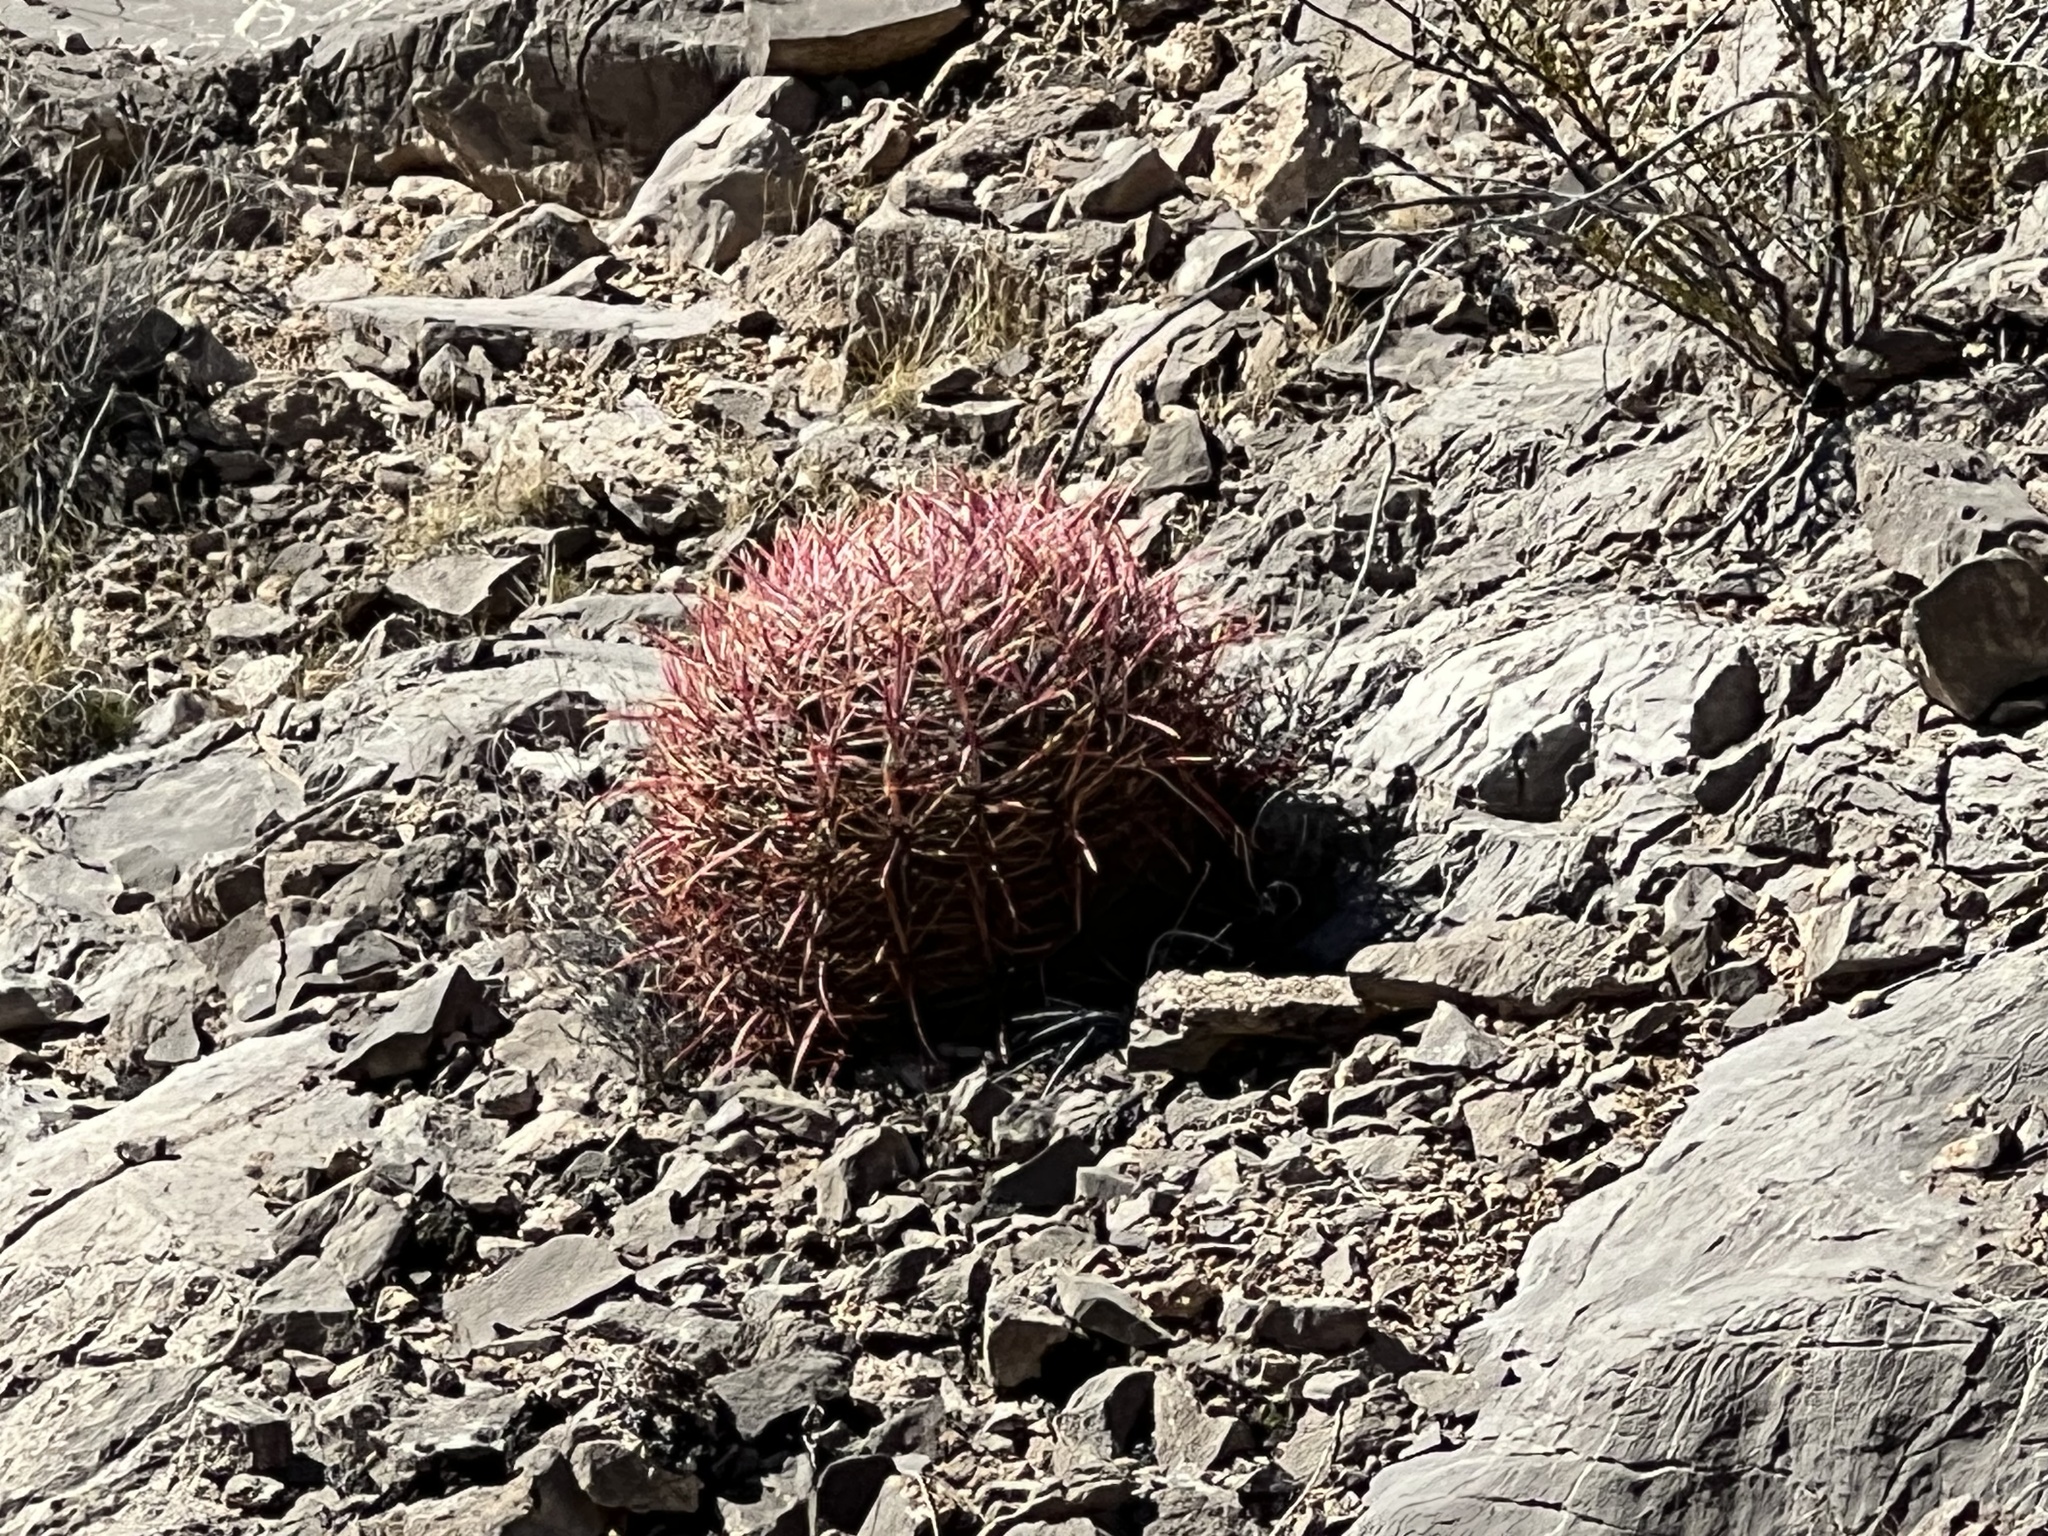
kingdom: Plantae
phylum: Tracheophyta
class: Magnoliopsida
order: Caryophyllales
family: Cactaceae
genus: Ferocactus
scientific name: Ferocactus cylindraceus
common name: California barrel cactus
